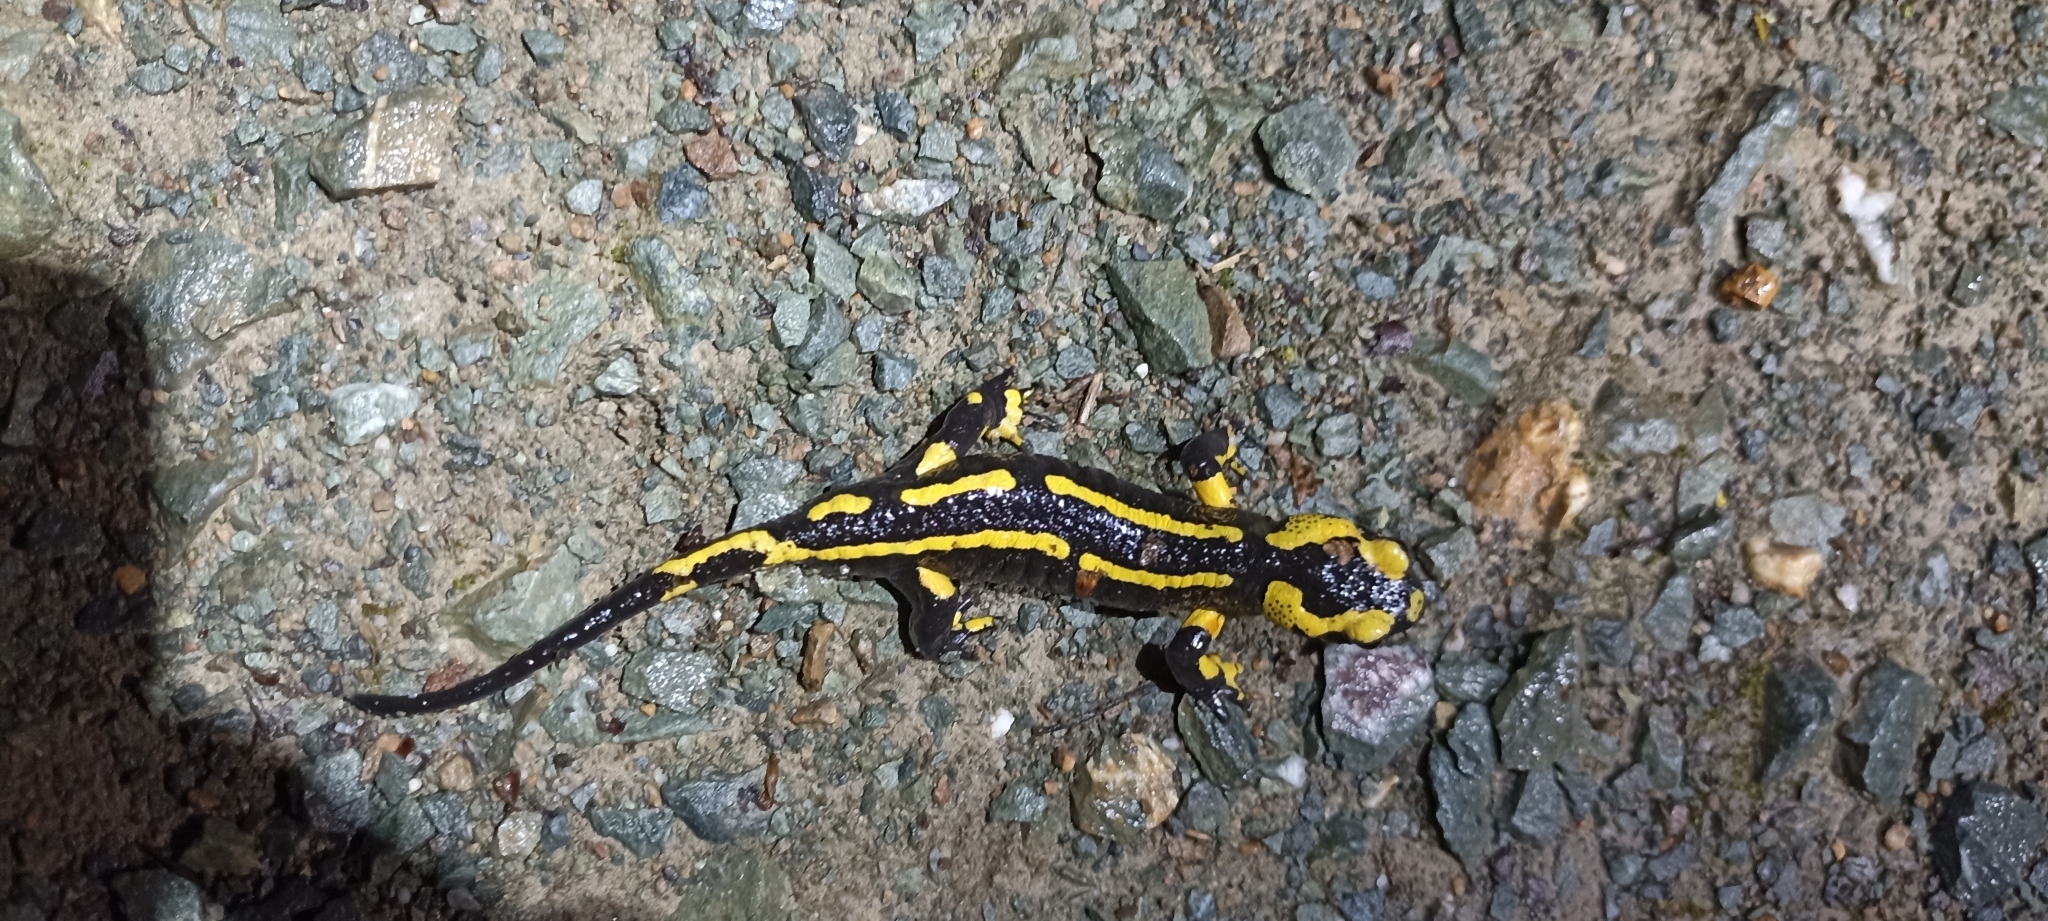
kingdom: Animalia
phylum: Chordata
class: Amphibia
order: Caudata
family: Salamandridae
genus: Salamandra
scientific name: Salamandra salamandra
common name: Fire salamander
